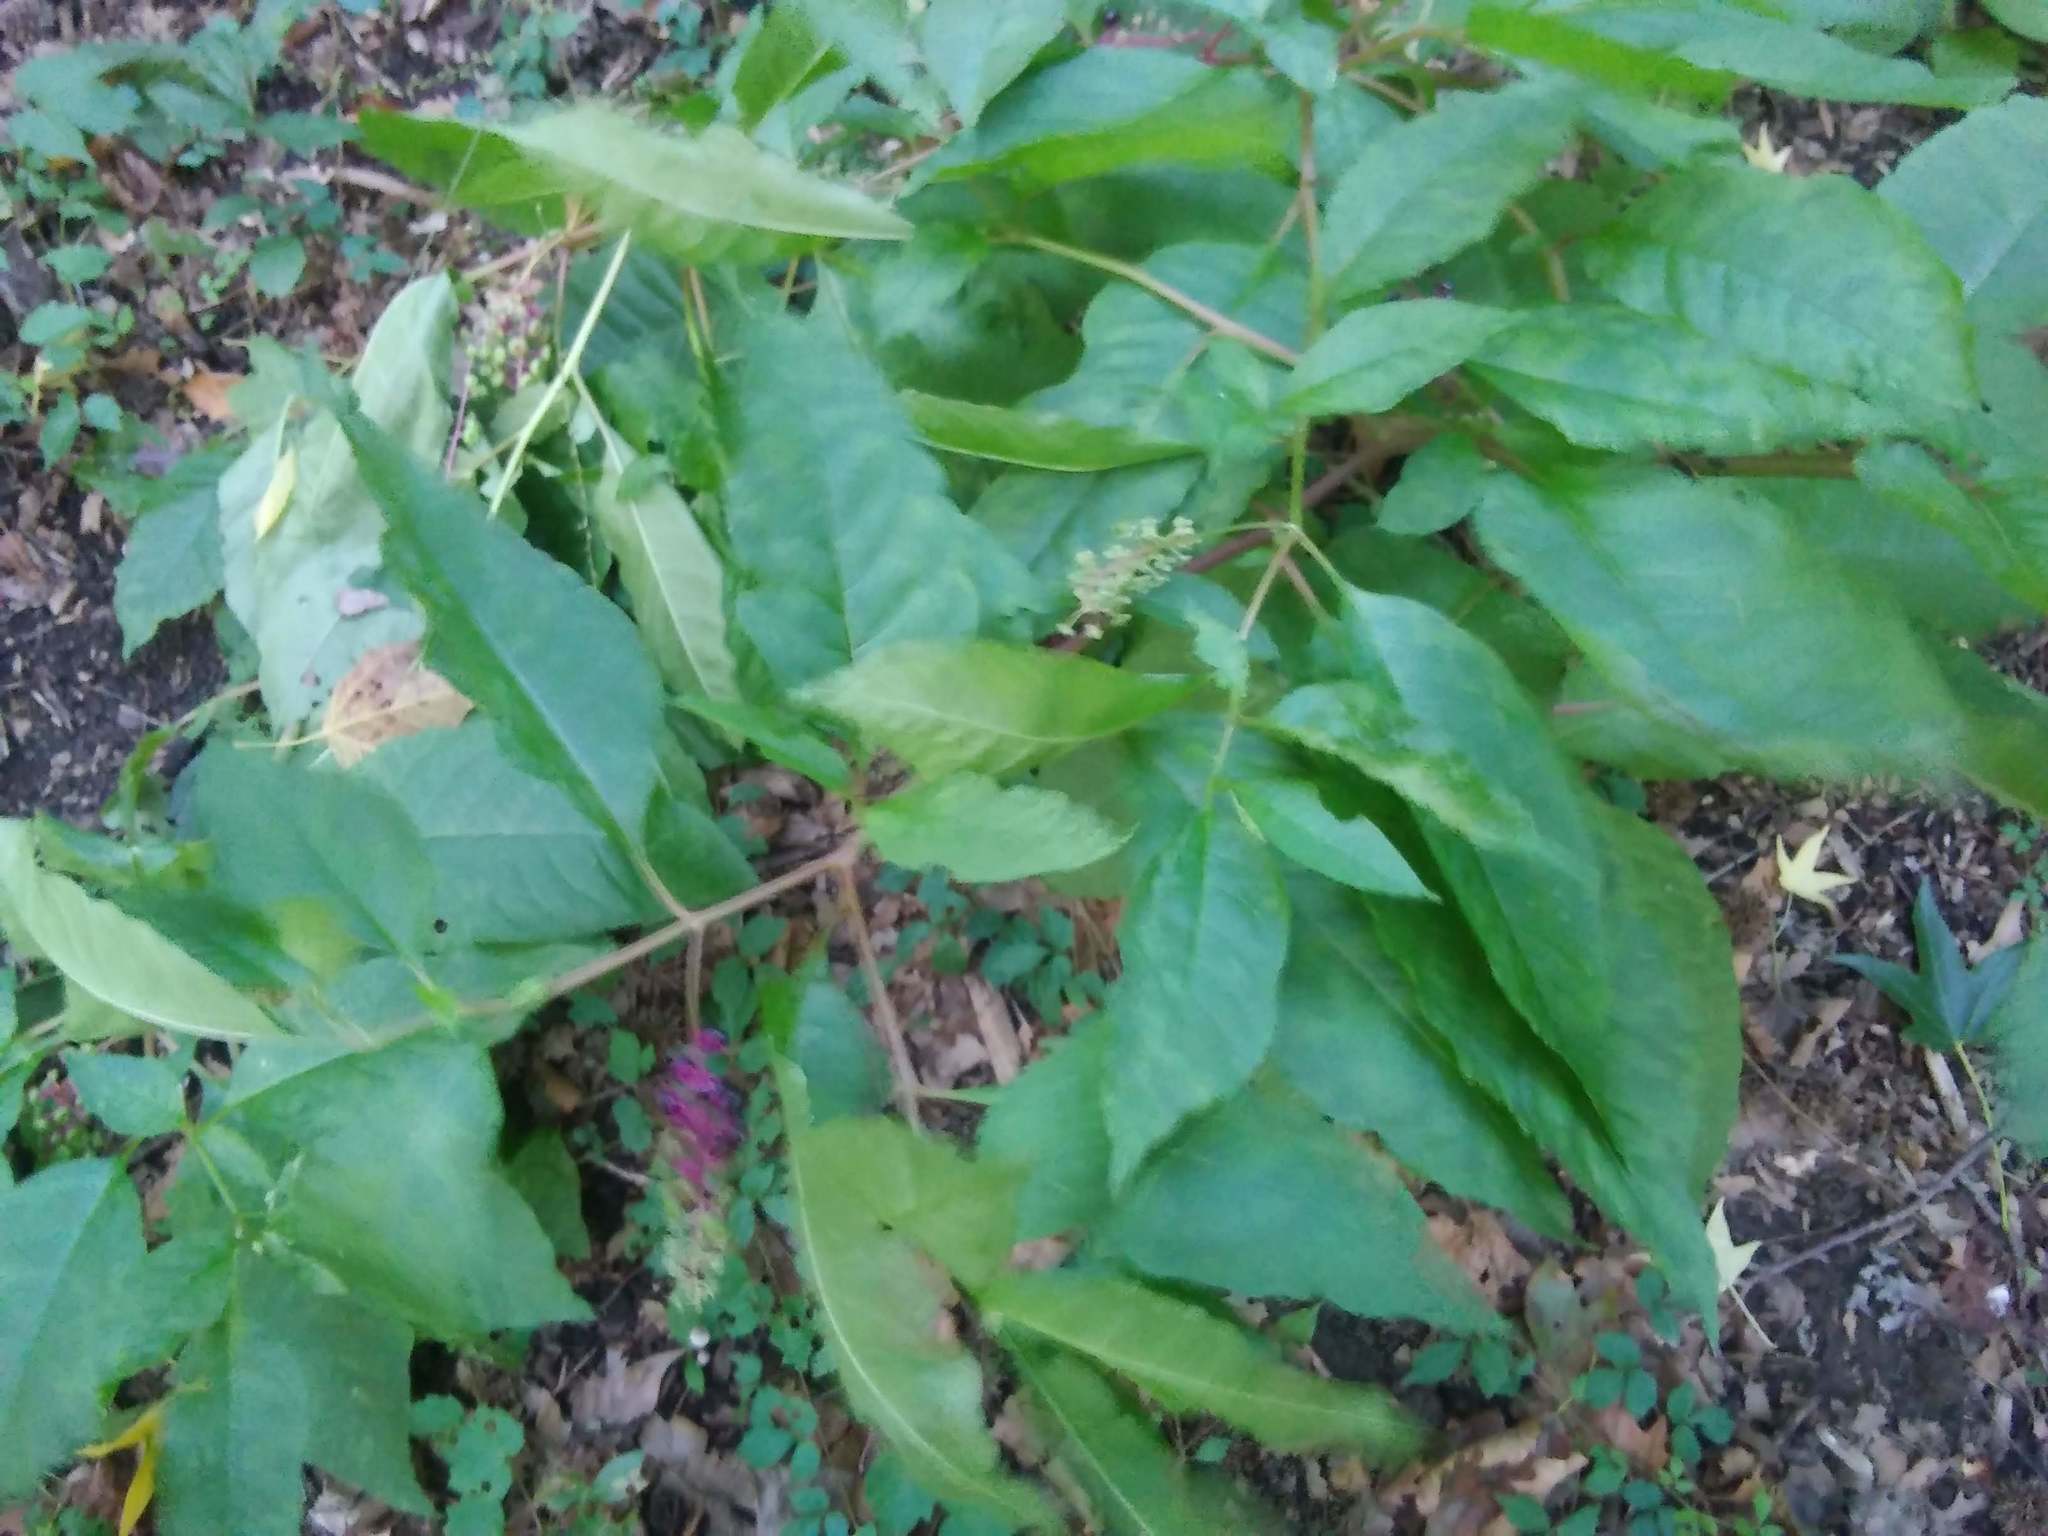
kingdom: Plantae
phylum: Tracheophyta
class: Magnoliopsida
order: Caryophyllales
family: Phytolaccaceae
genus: Phytolacca
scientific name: Phytolacca americana
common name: American pokeweed
